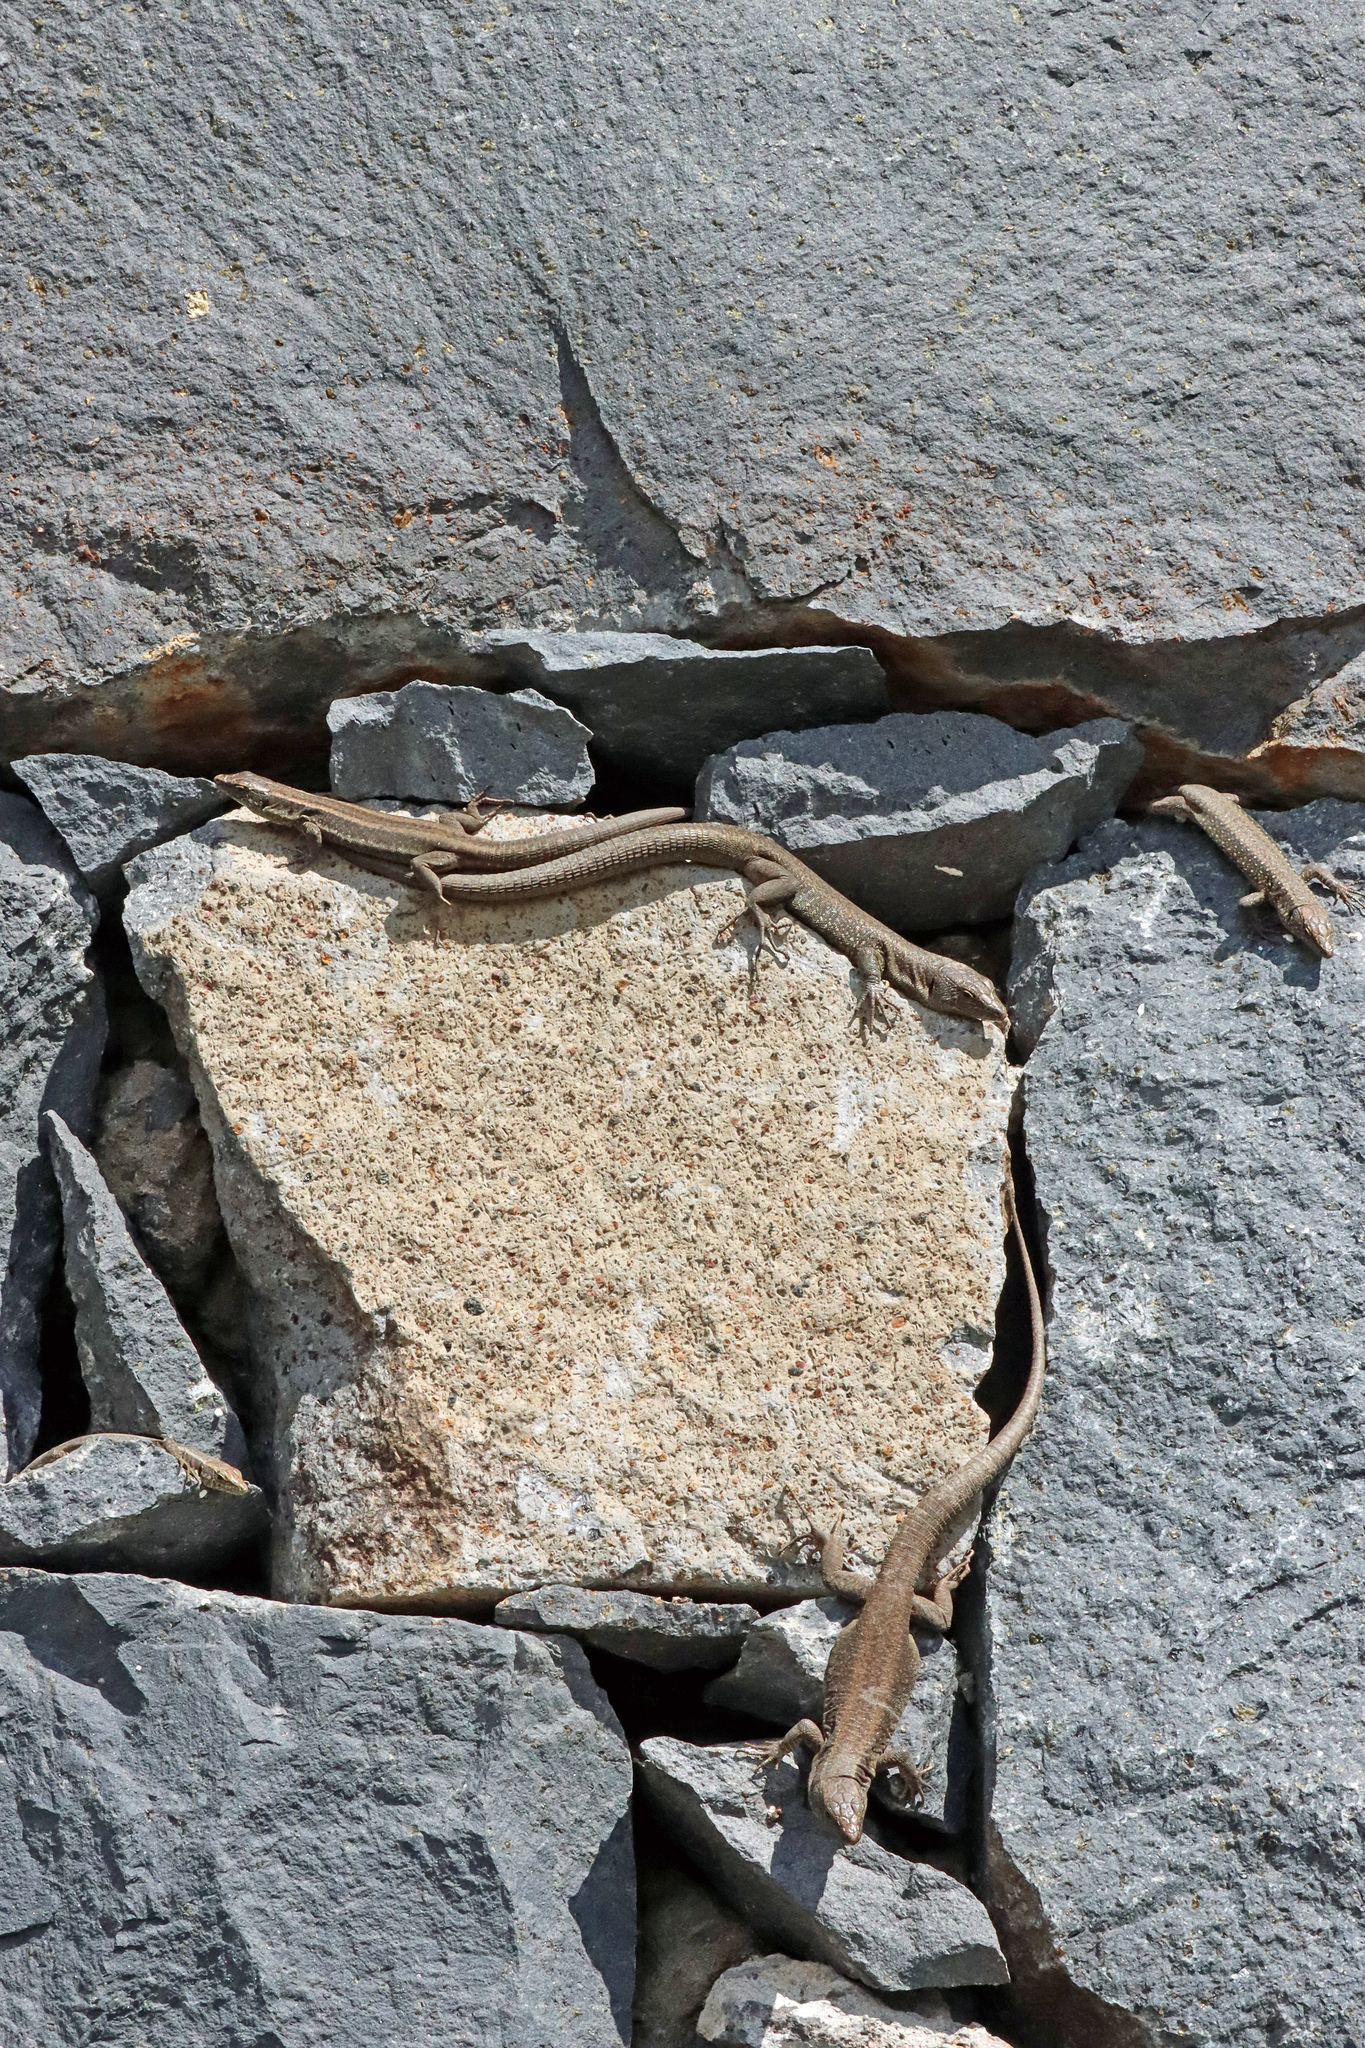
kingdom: Animalia
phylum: Chordata
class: Squamata
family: Lacertidae
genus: Teira
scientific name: Teira dugesii
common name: Madeira lizard
